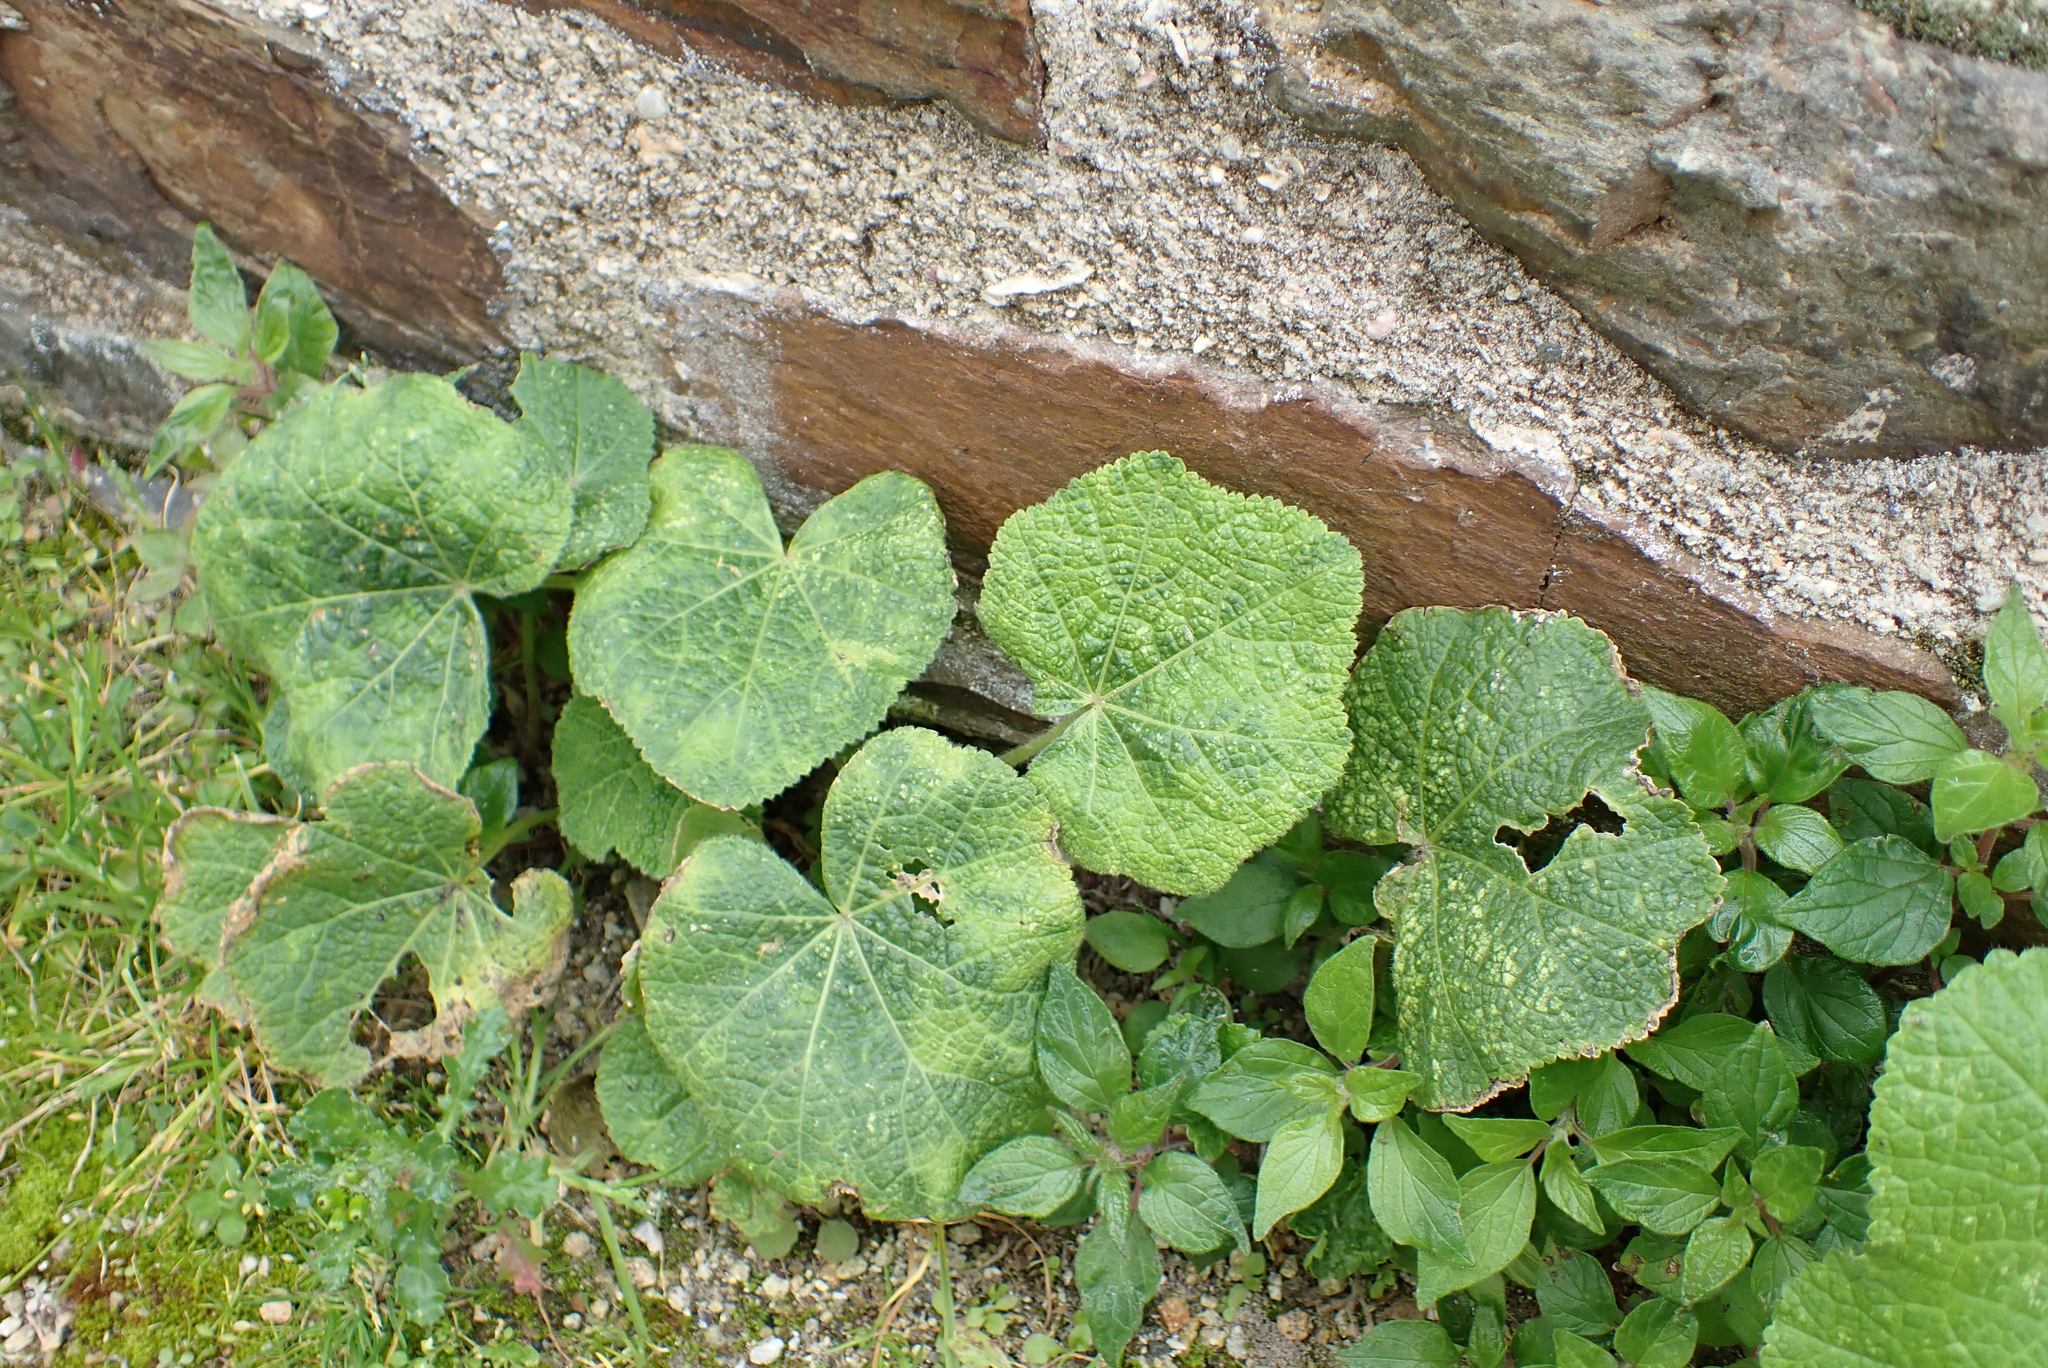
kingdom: Plantae
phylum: Tracheophyta
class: Magnoliopsida
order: Malvales
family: Malvaceae
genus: Alcea
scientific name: Alcea rosea
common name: Hollyhock
